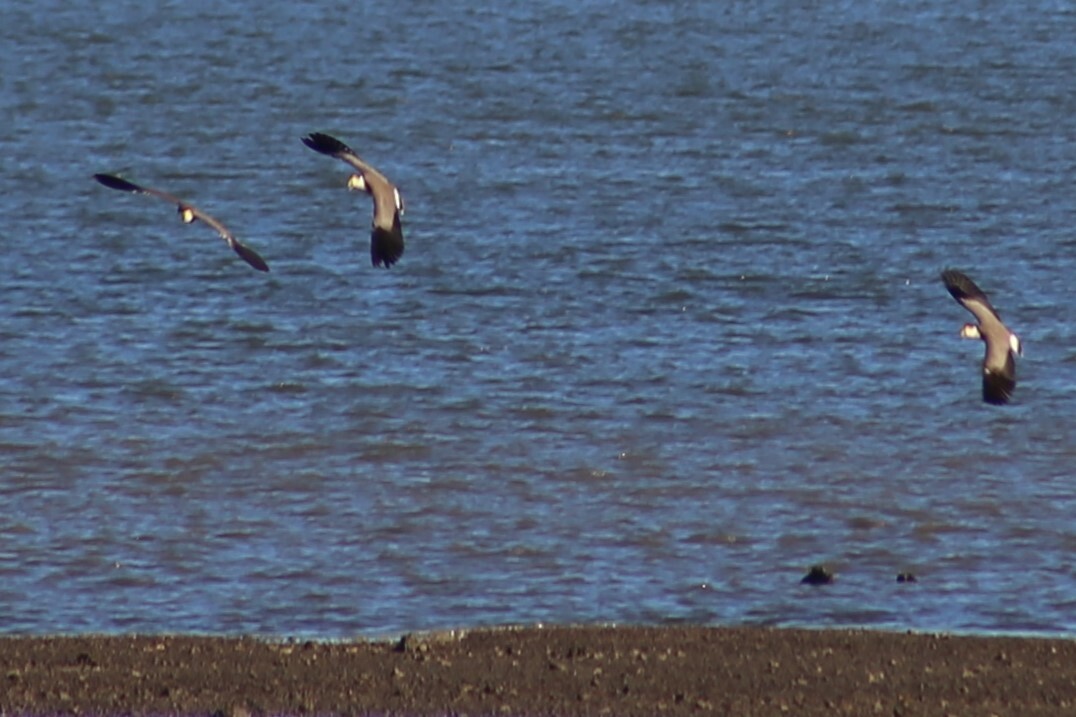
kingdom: Animalia
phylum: Chordata
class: Aves
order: Charadriiformes
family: Charadriidae
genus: Vanellus
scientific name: Vanellus miles
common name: Masked lapwing
